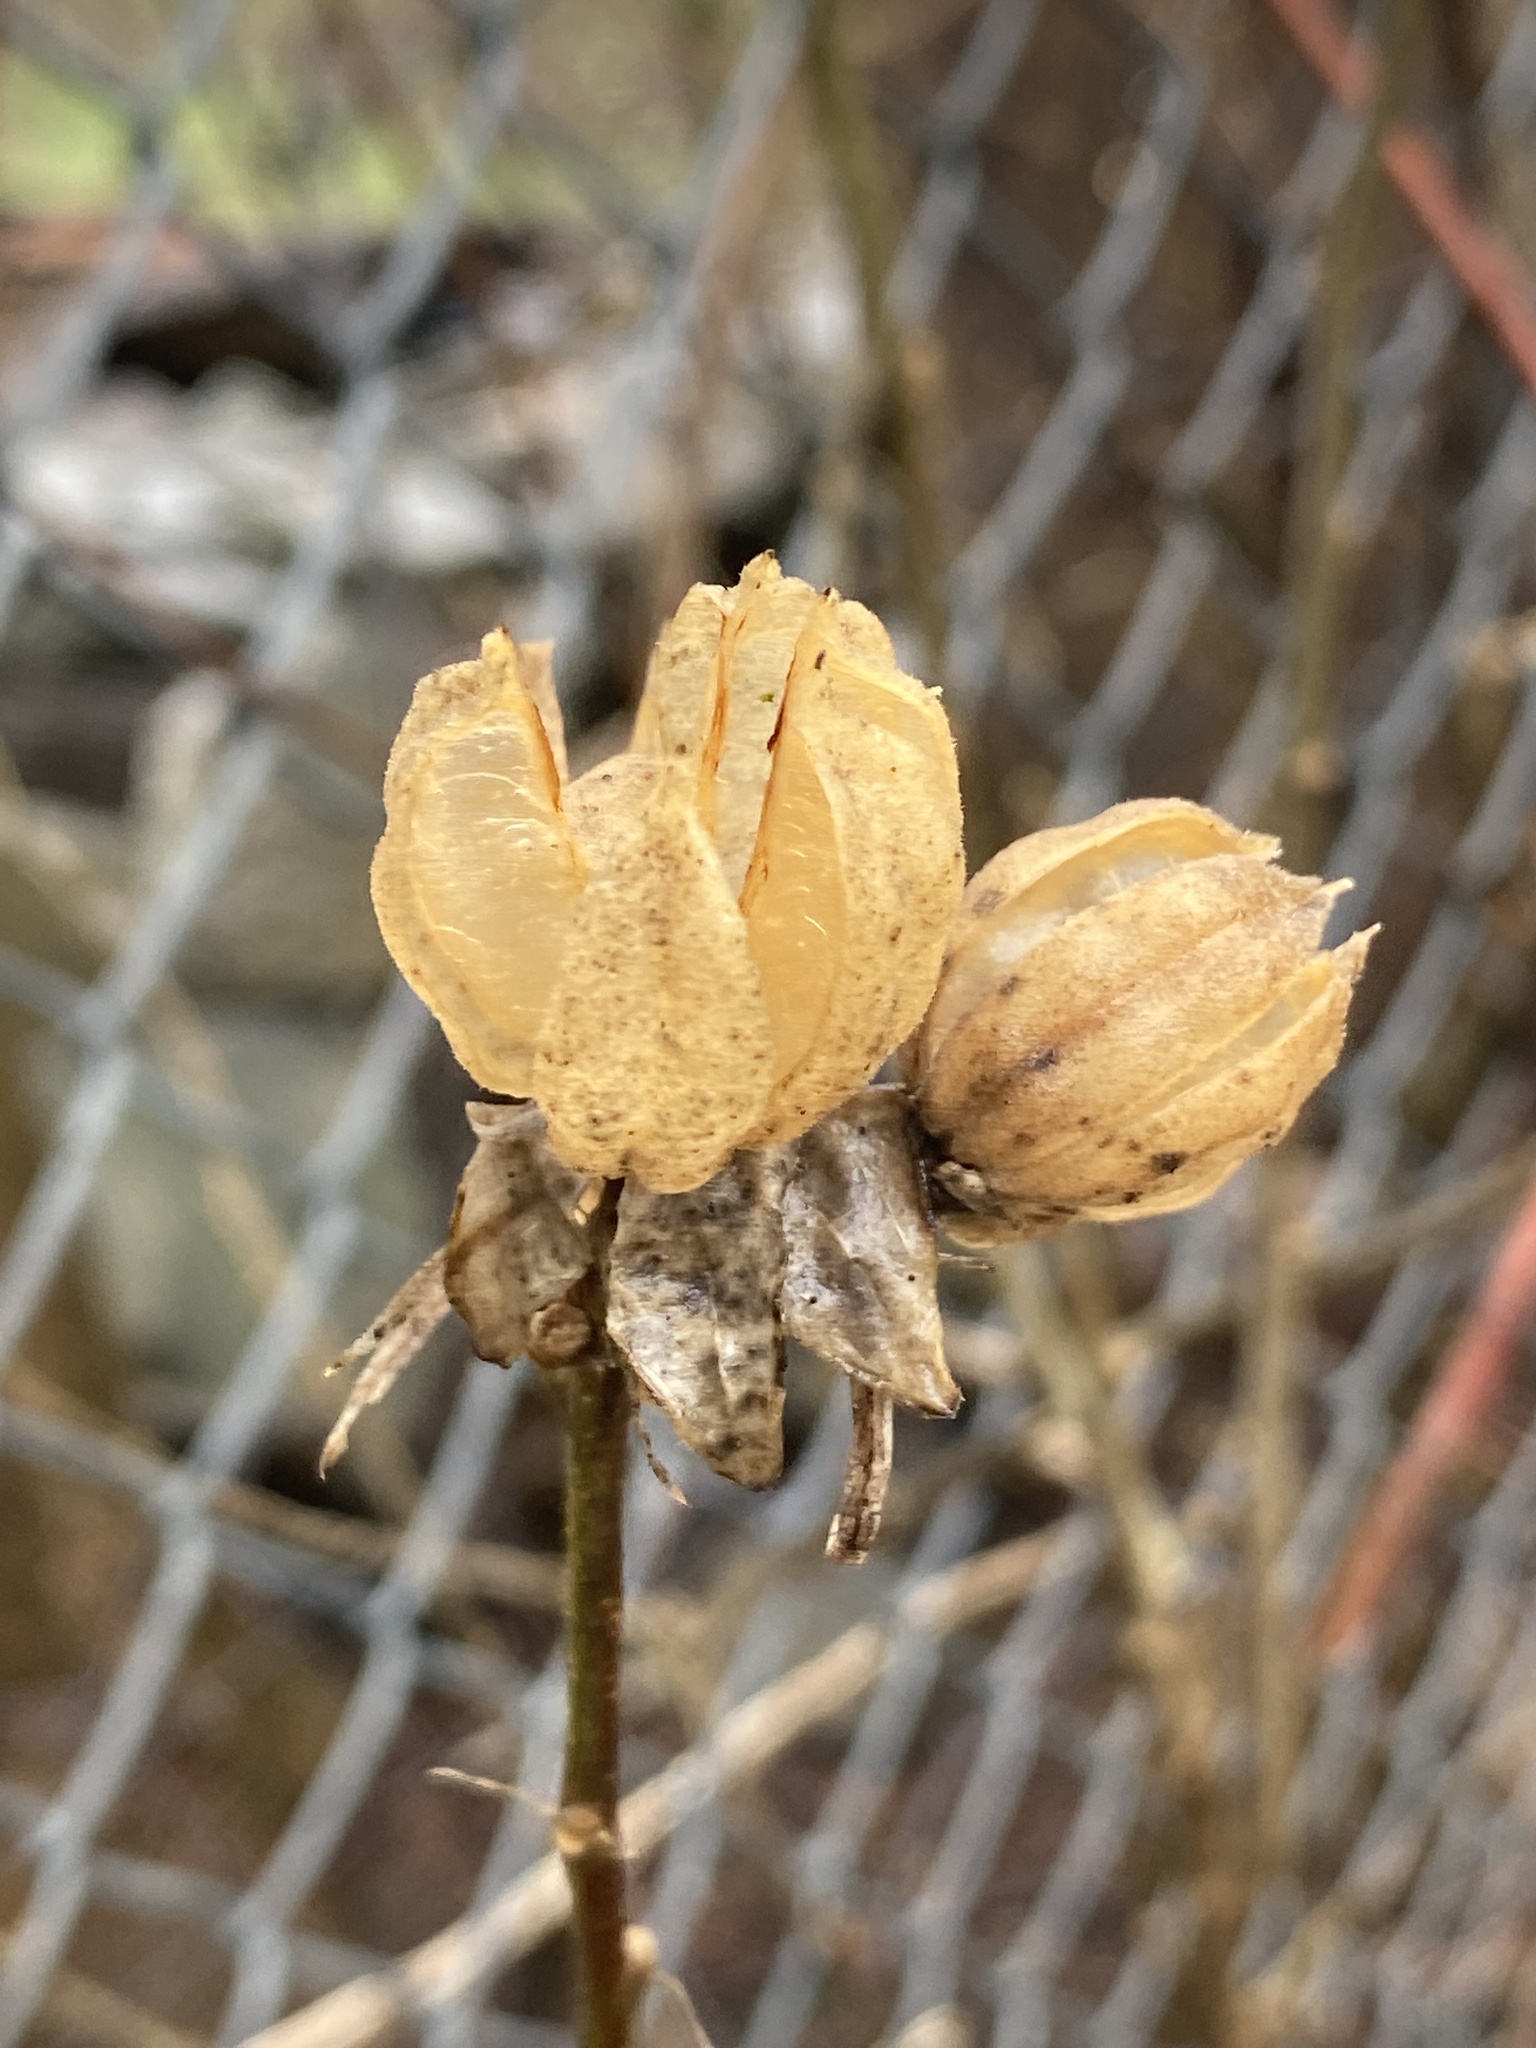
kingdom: Plantae
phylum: Tracheophyta
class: Magnoliopsida
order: Malvales
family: Malvaceae
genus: Hibiscus
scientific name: Hibiscus syriacus
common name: Syrian ketmia
